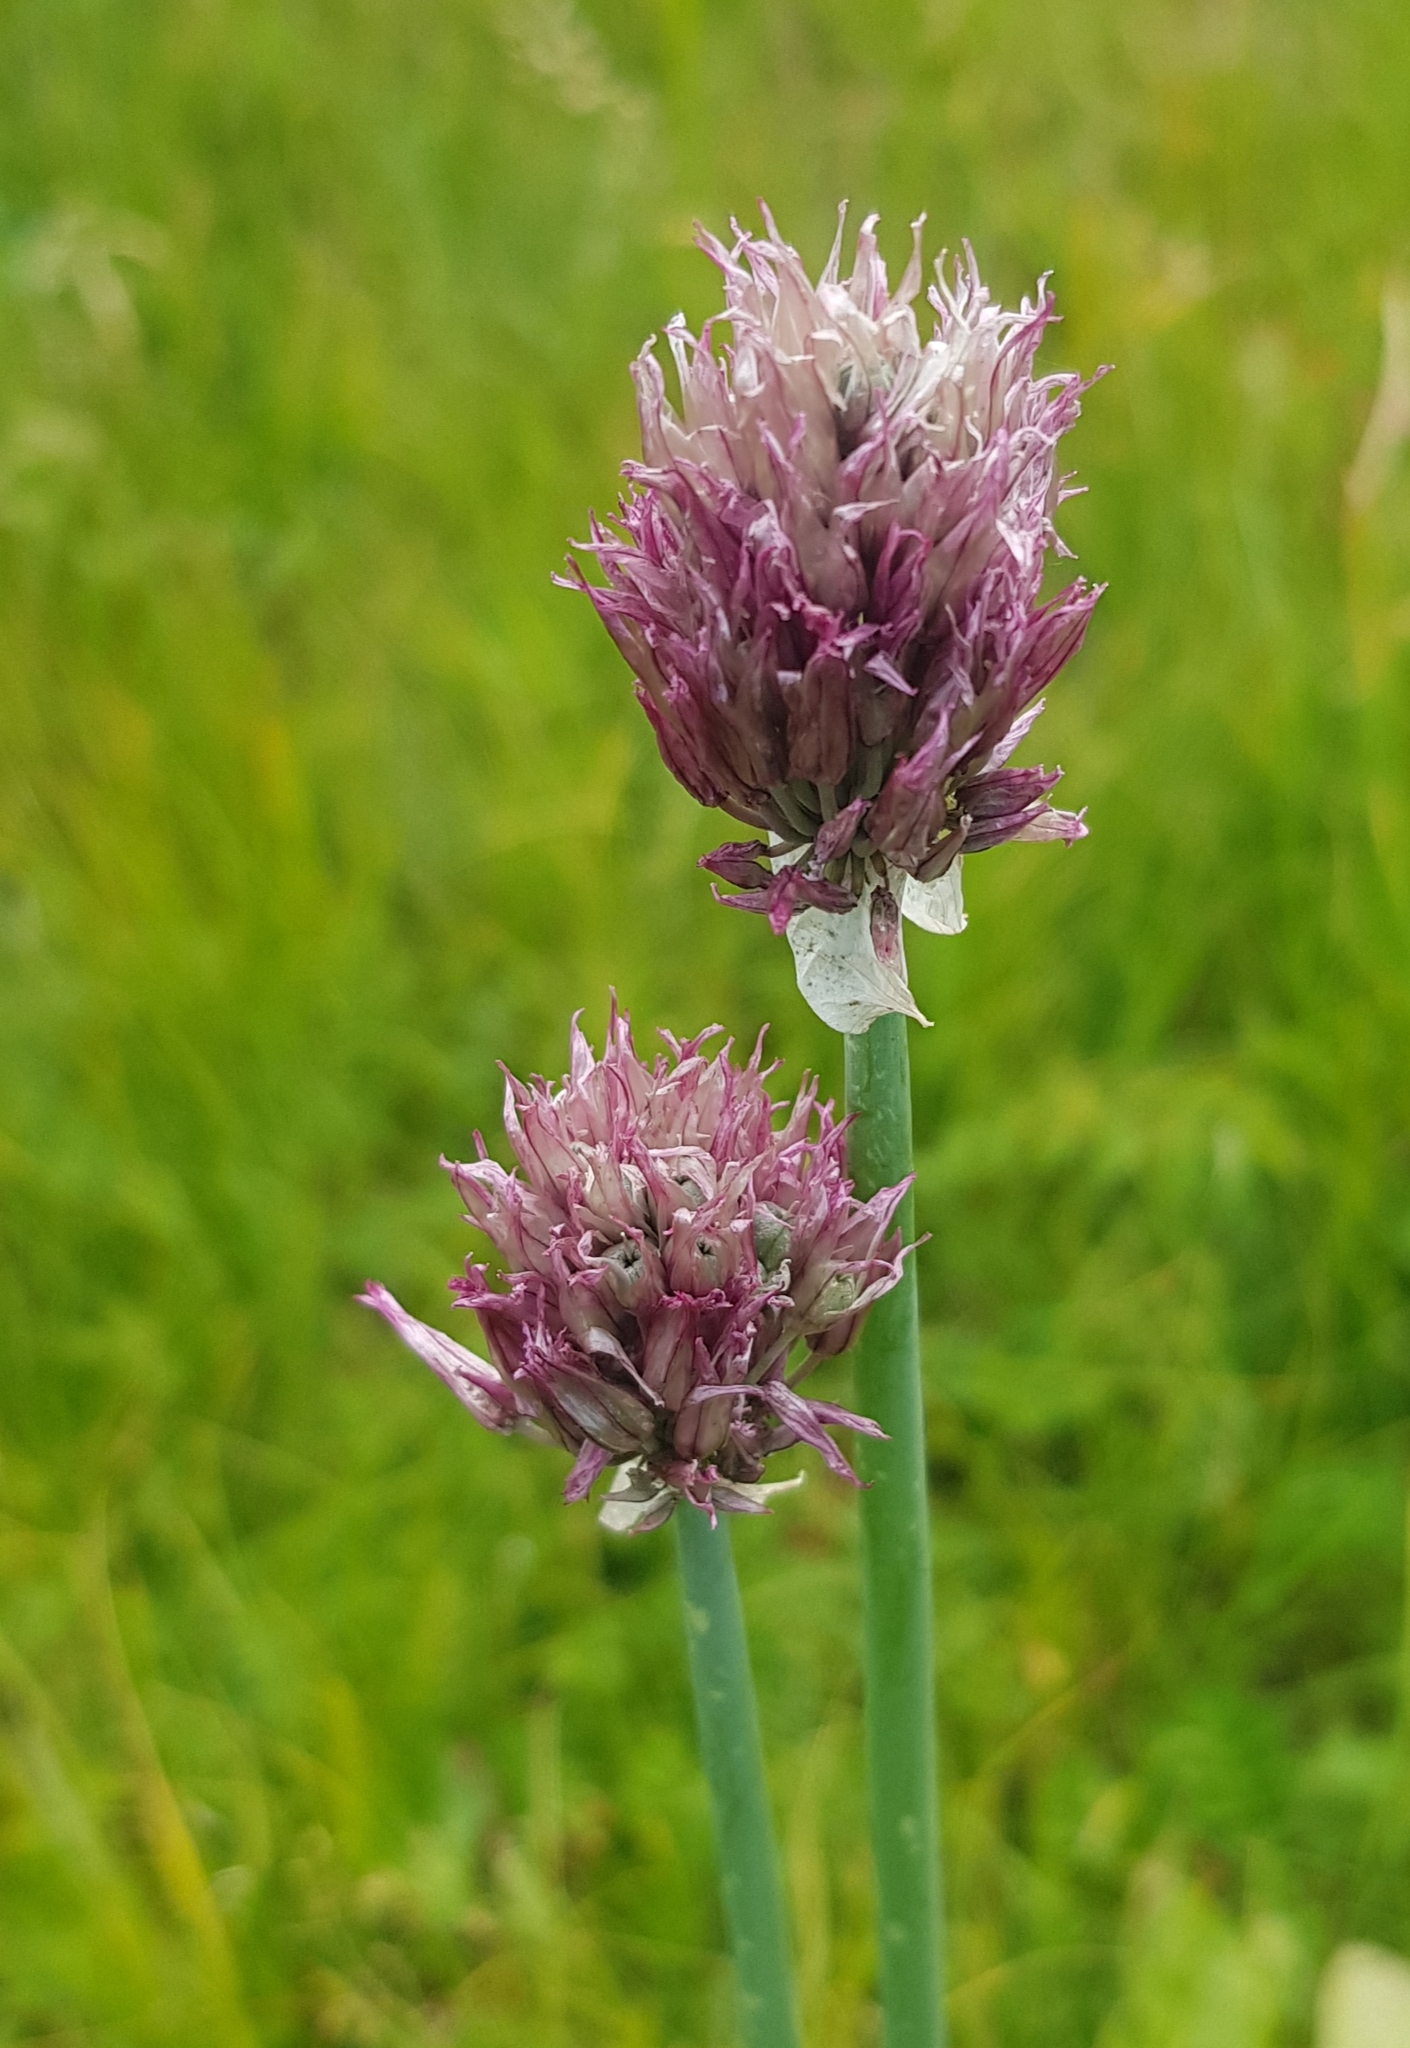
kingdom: Plantae
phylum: Tracheophyta
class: Liliopsida
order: Asparagales
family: Amaryllidaceae
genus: Allium
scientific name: Allium schoenoprasum
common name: Chives
